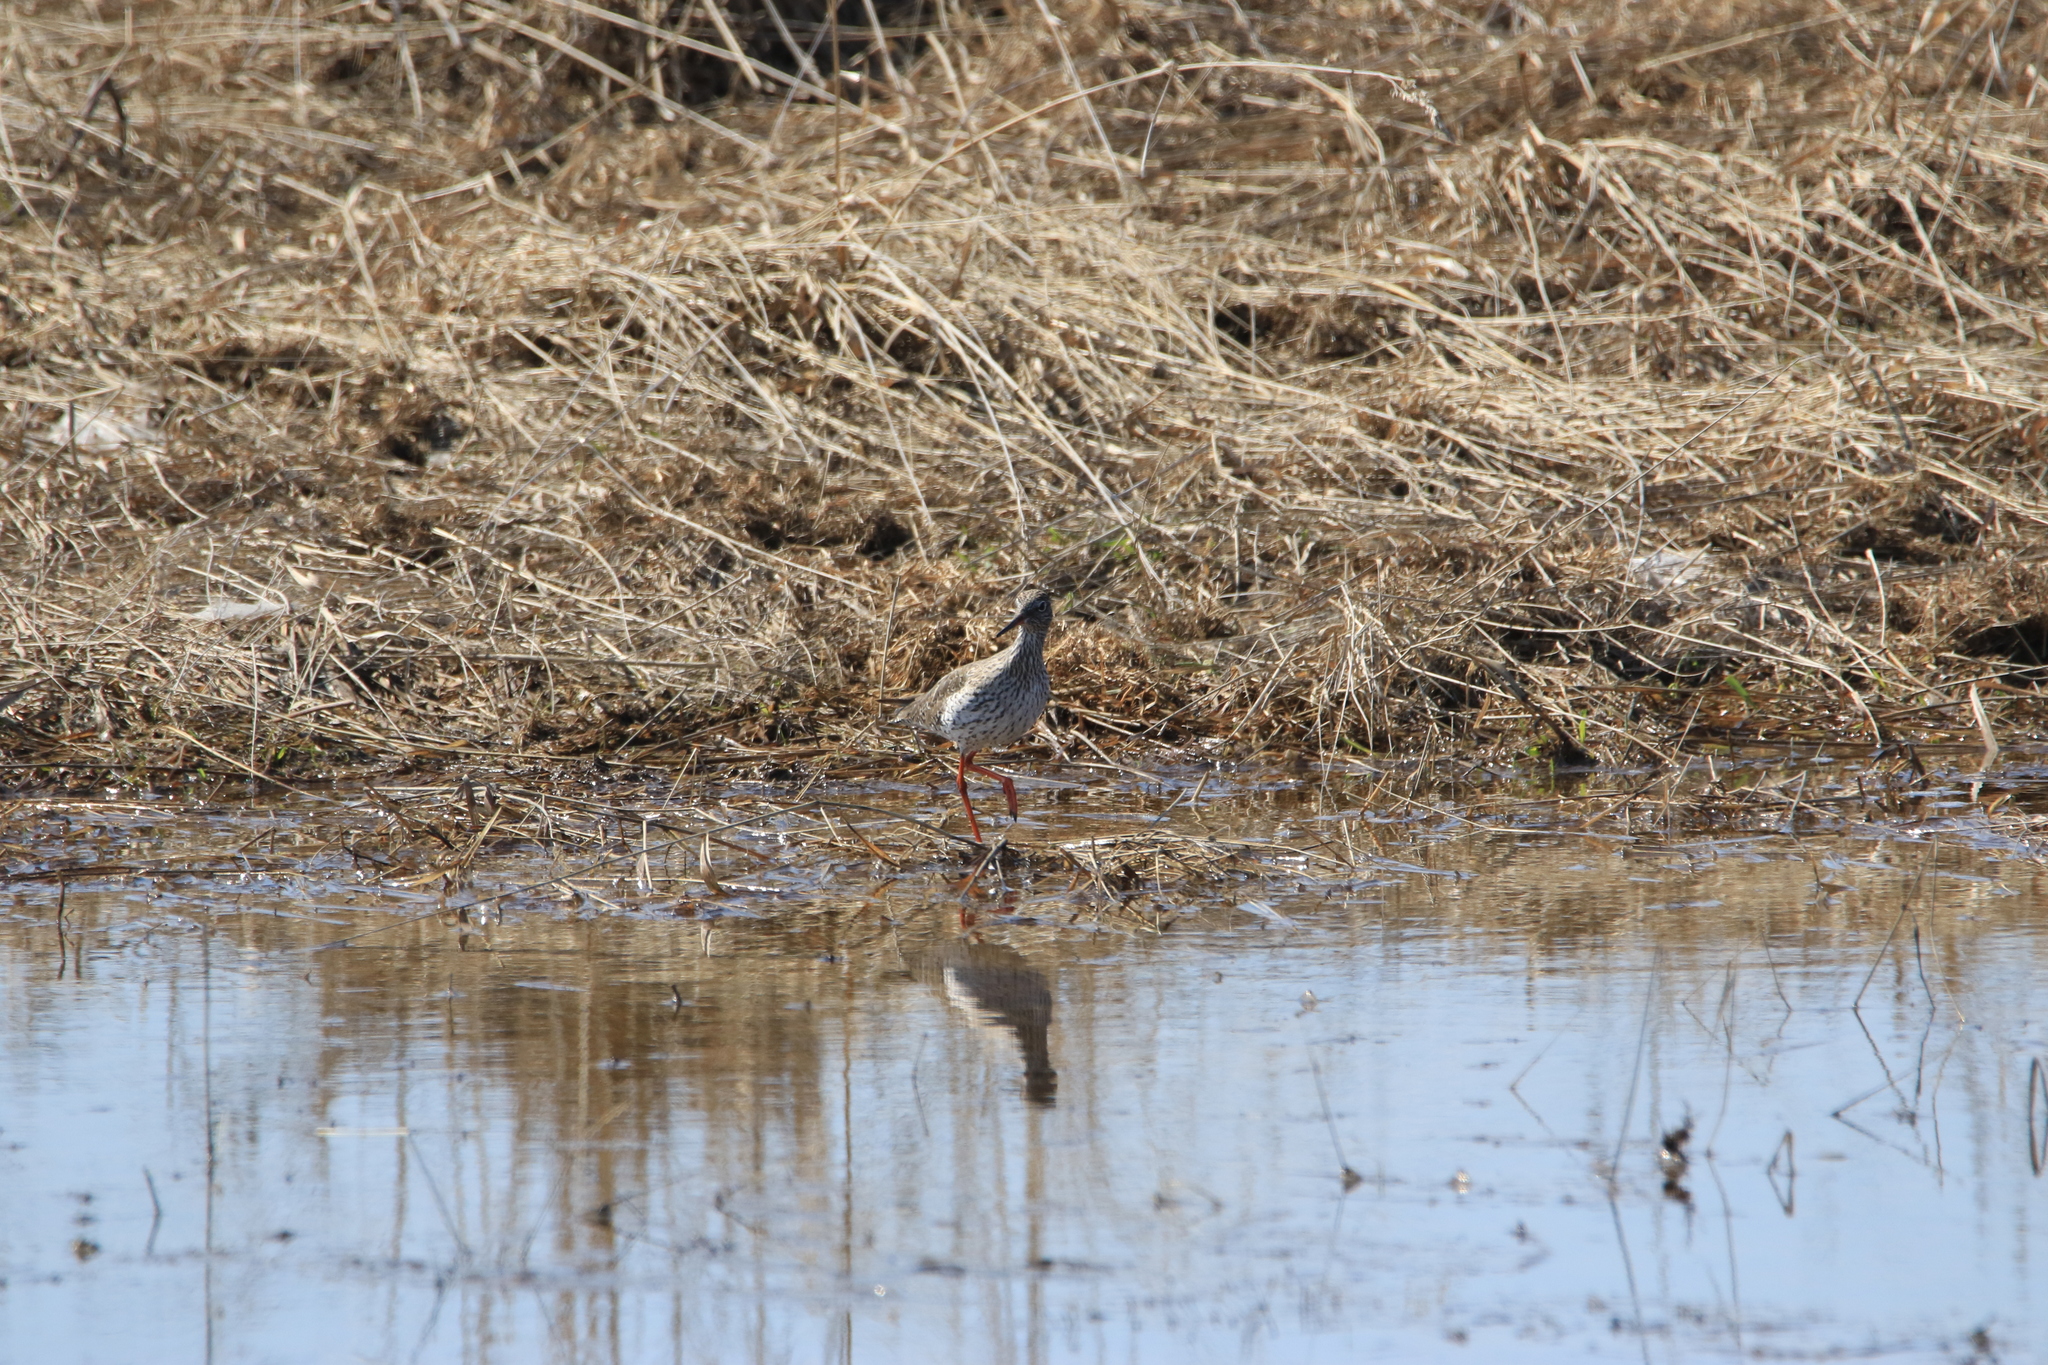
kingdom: Animalia
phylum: Chordata
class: Aves
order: Charadriiformes
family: Scolopacidae
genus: Tringa
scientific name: Tringa totanus
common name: Common redshank
